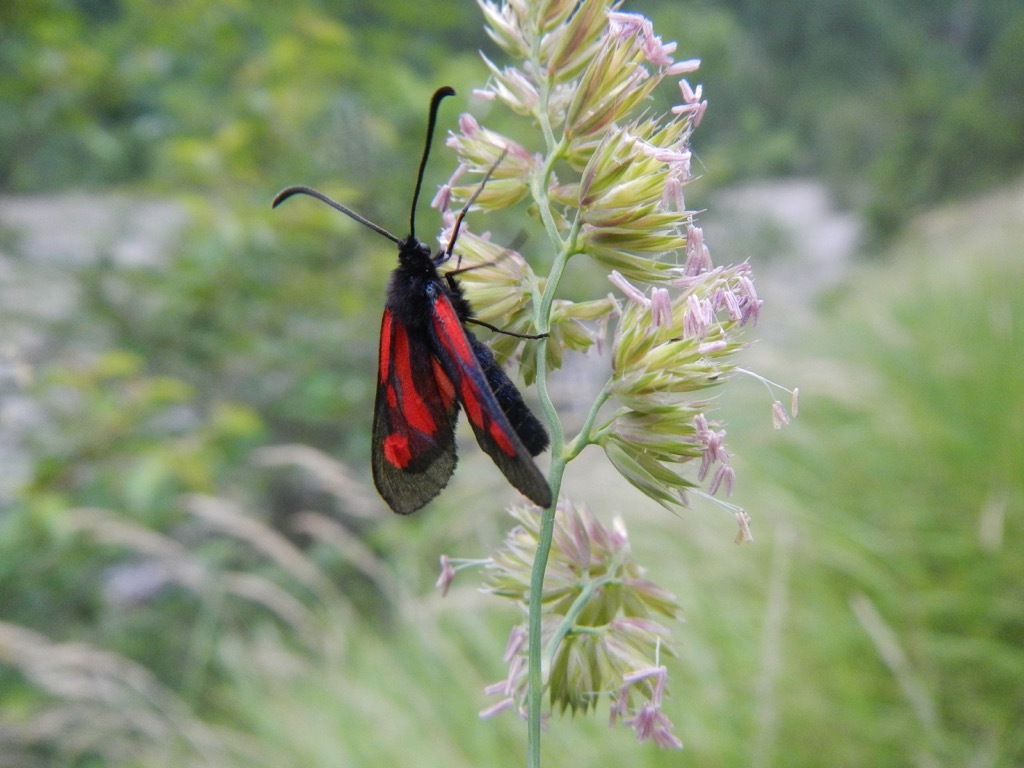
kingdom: Animalia
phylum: Arthropoda
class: Insecta
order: Lepidoptera
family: Zygaenidae
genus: Zygaena
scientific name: Zygaena romeo
